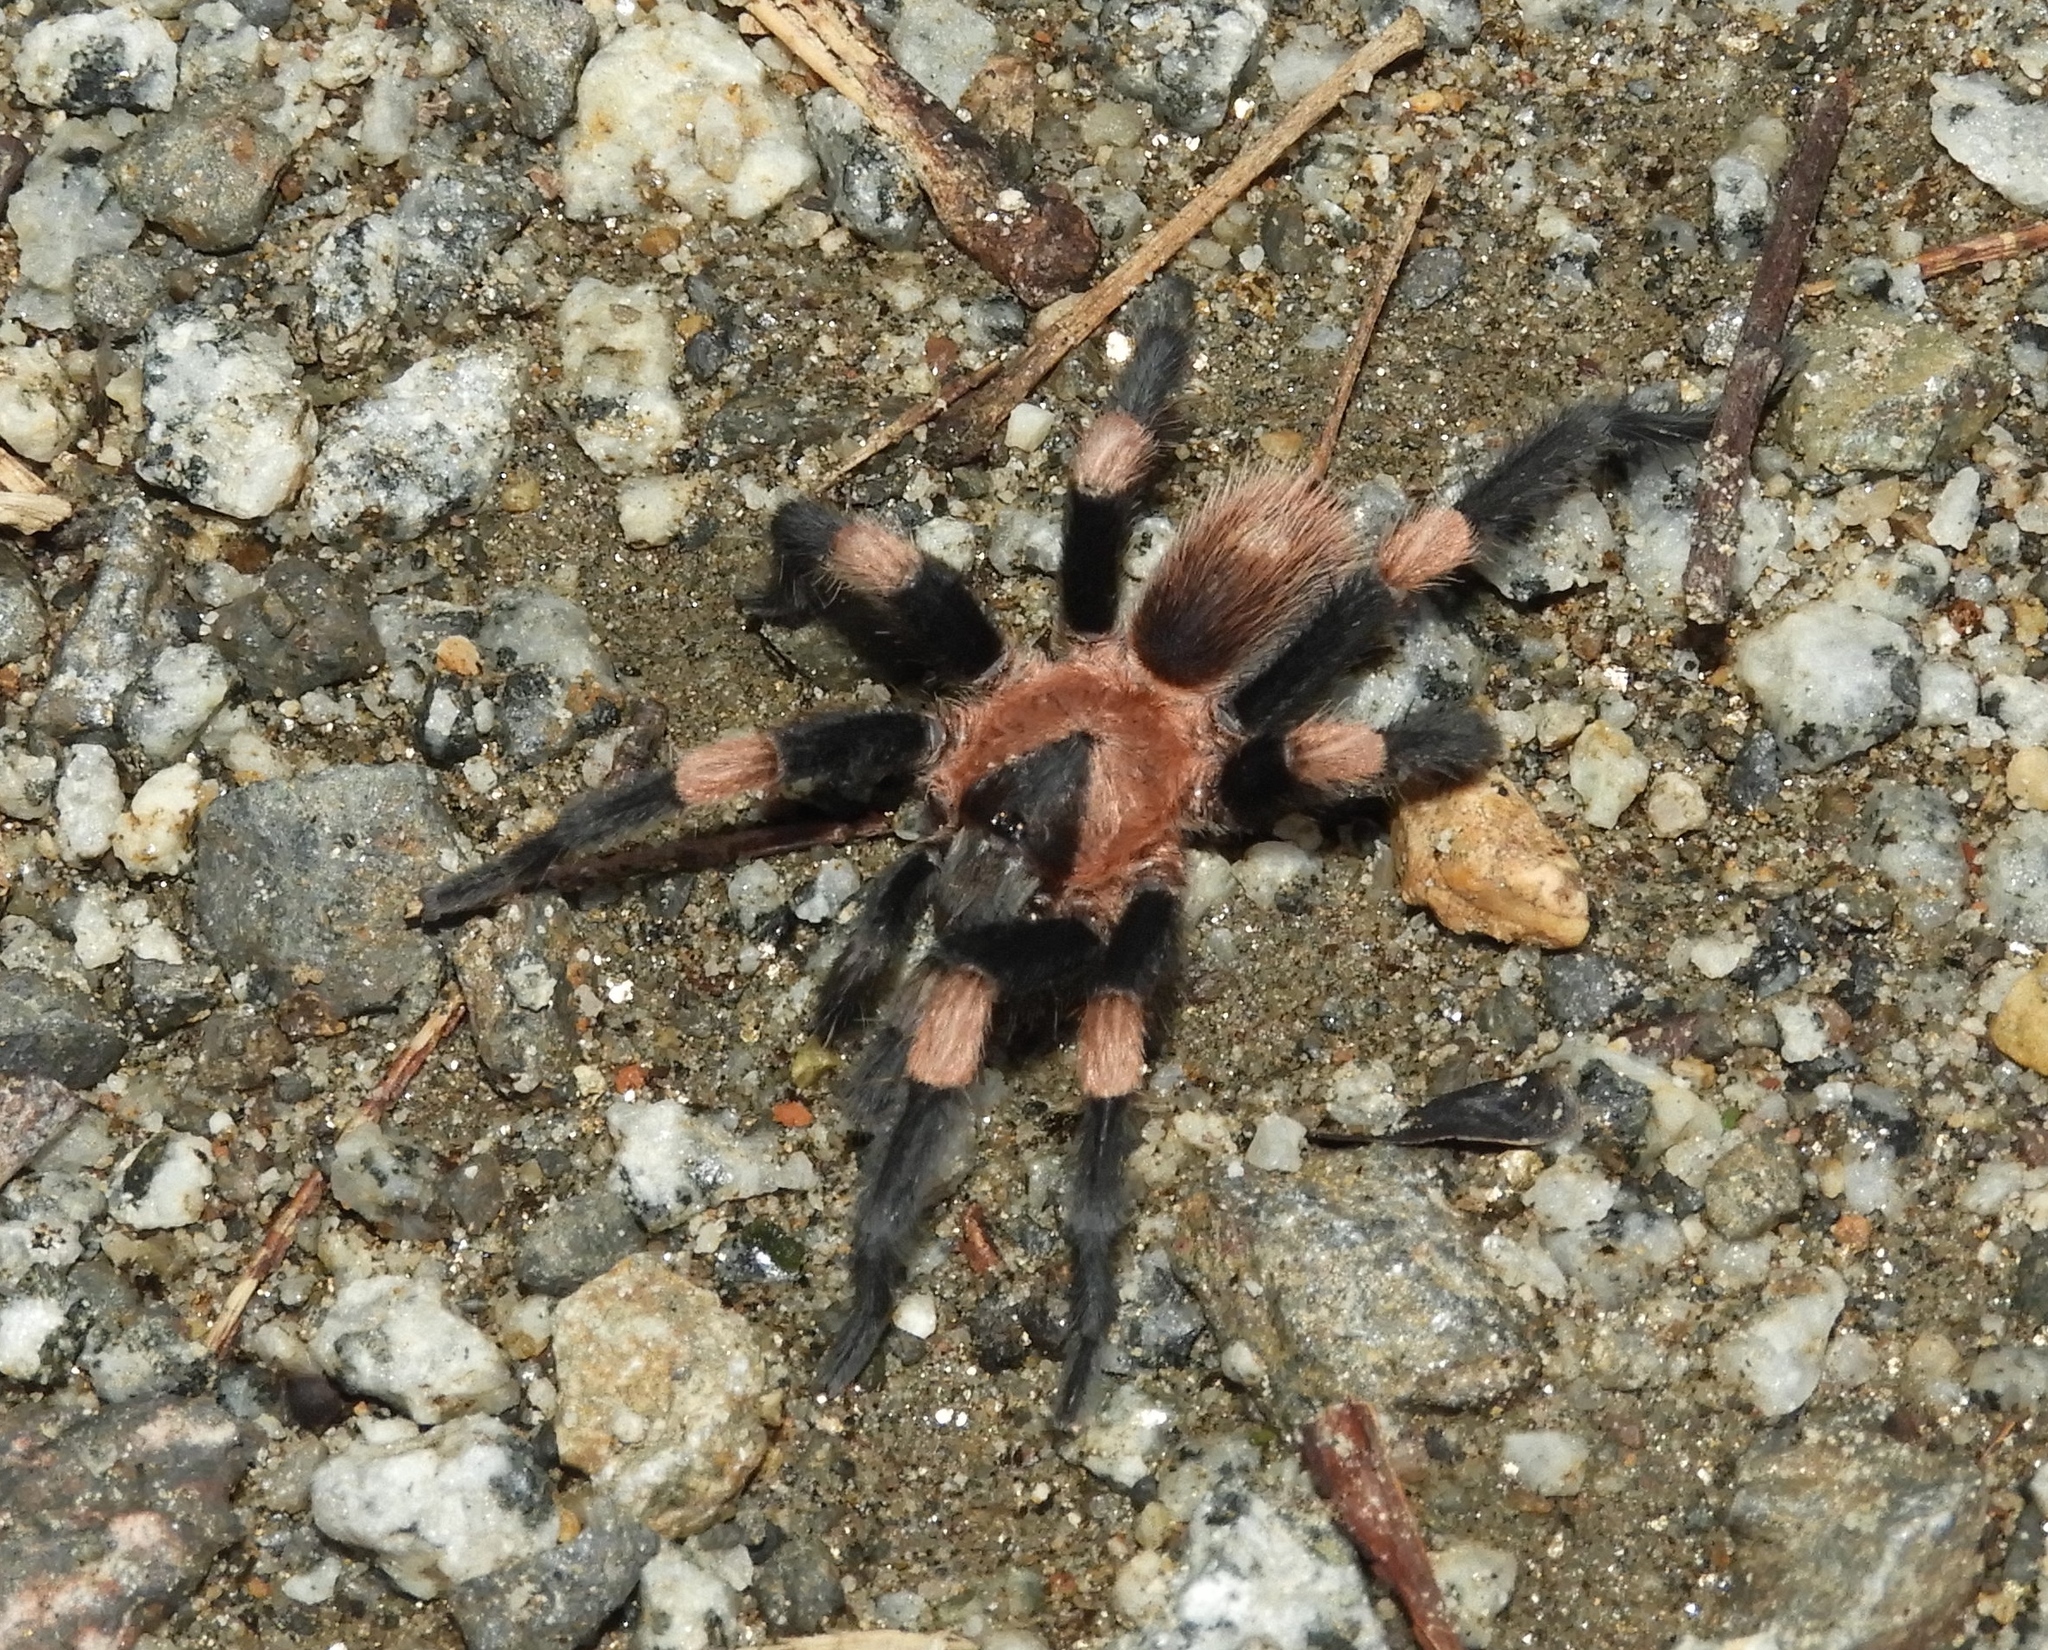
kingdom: Animalia
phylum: Arthropoda
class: Arachnida
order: Araneae
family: Theraphosidae
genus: Magnacarina
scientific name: Magnacarina
